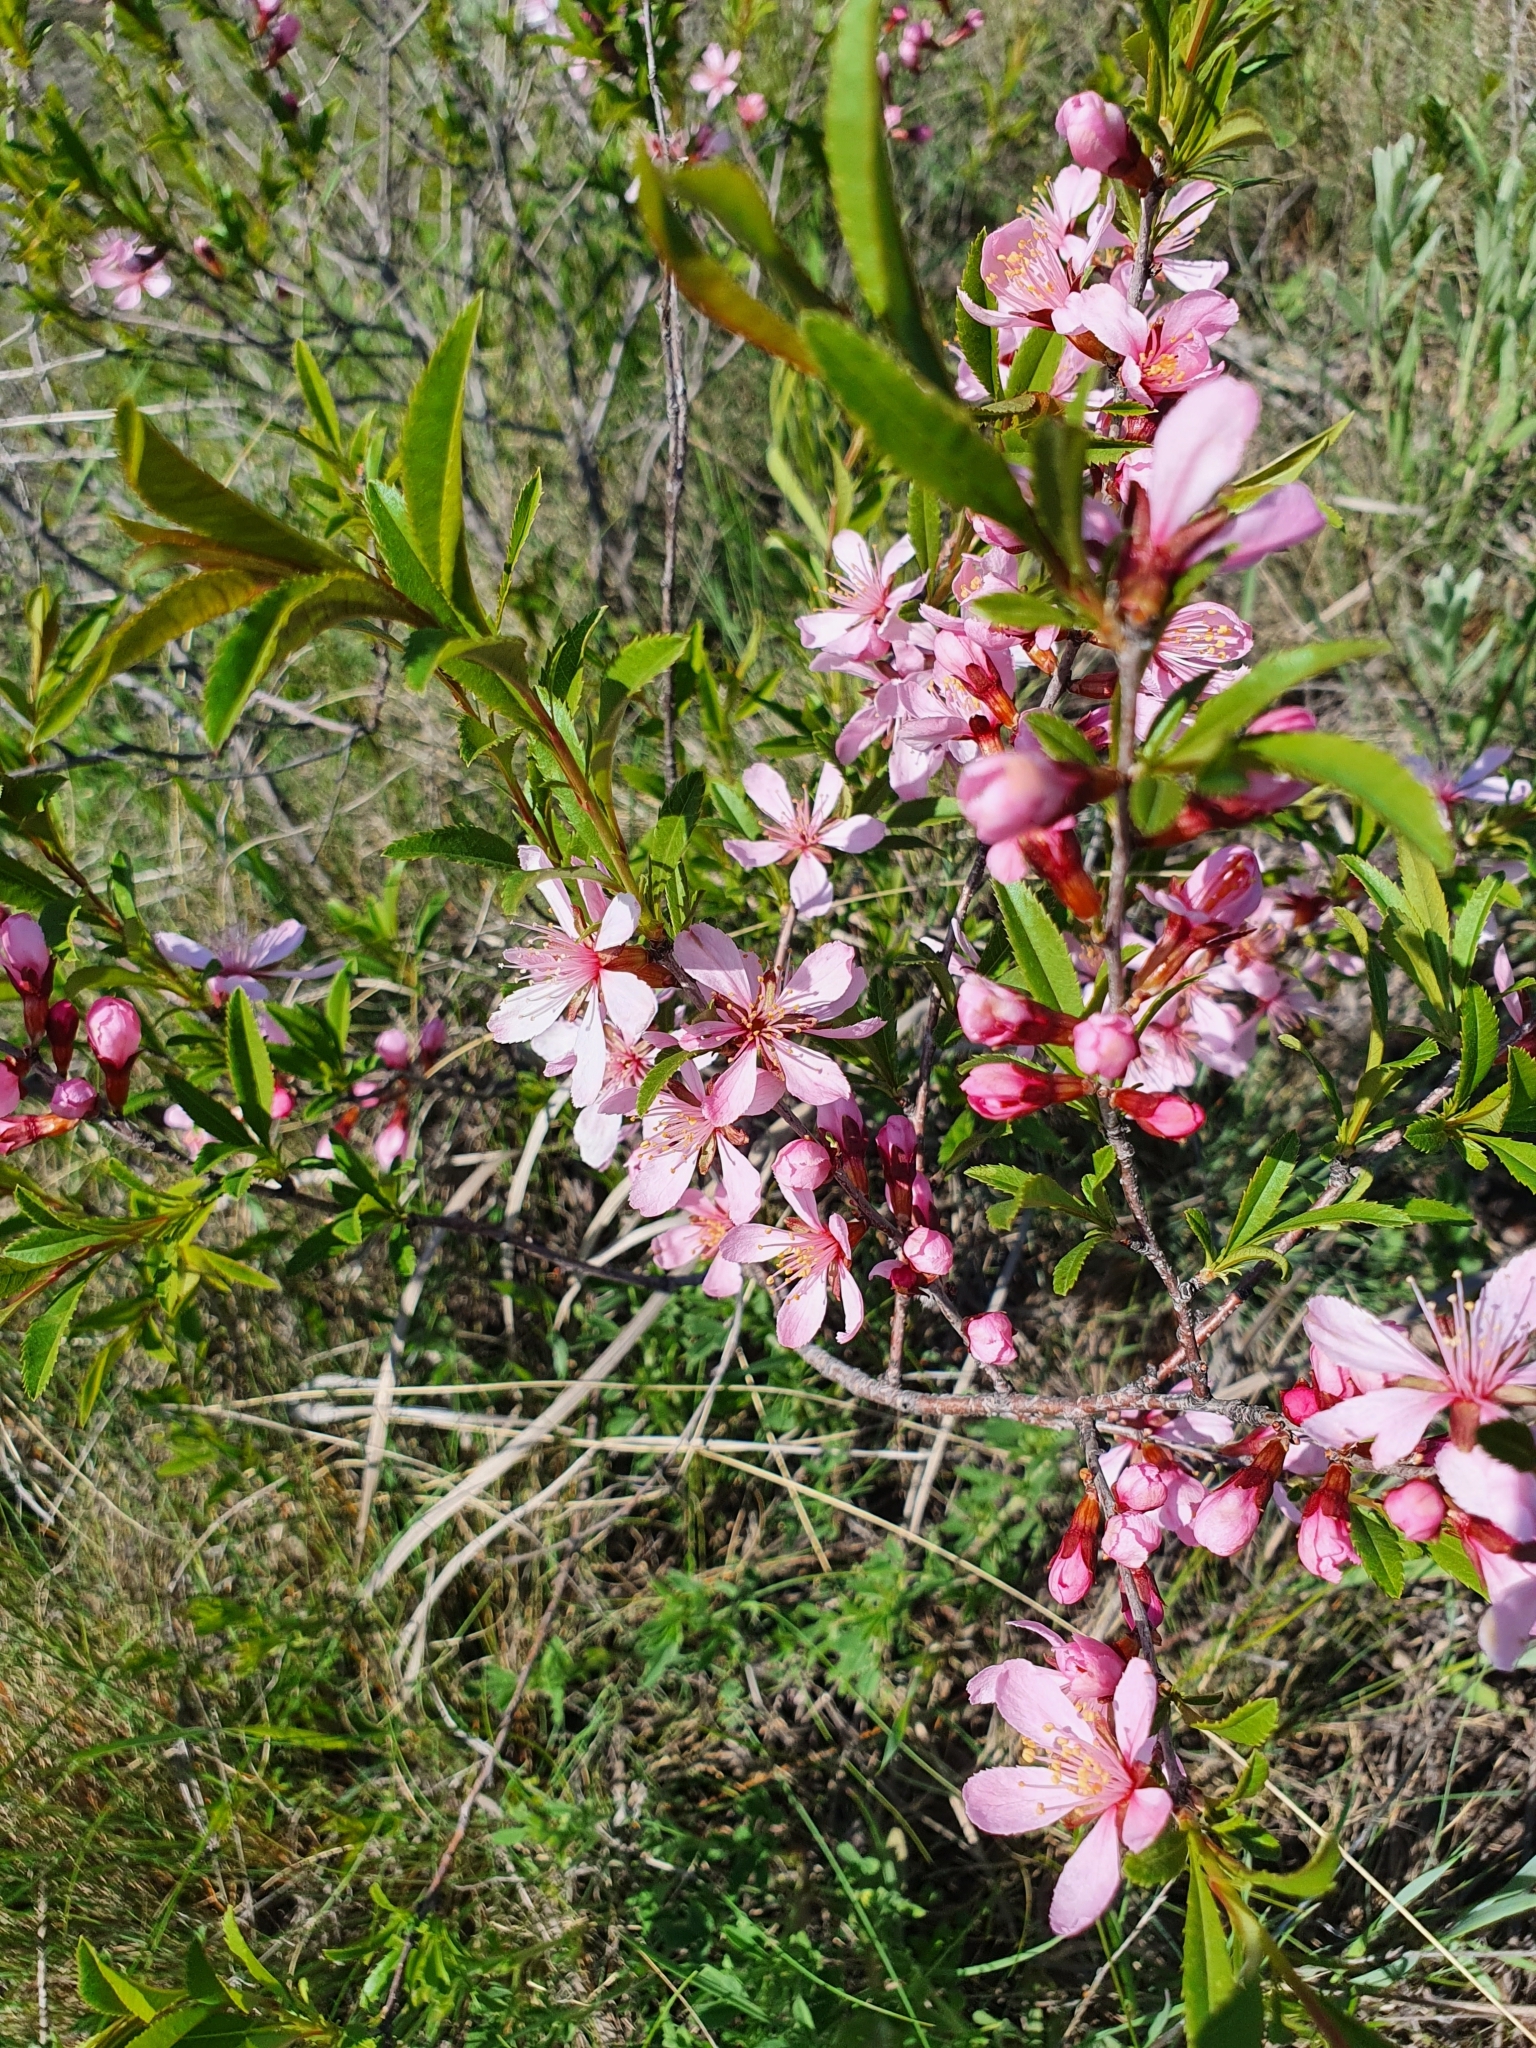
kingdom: Plantae
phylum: Tracheophyta
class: Magnoliopsida
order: Rosales
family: Rosaceae
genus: Prunus
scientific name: Prunus tenella
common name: Dwarf russian almond
